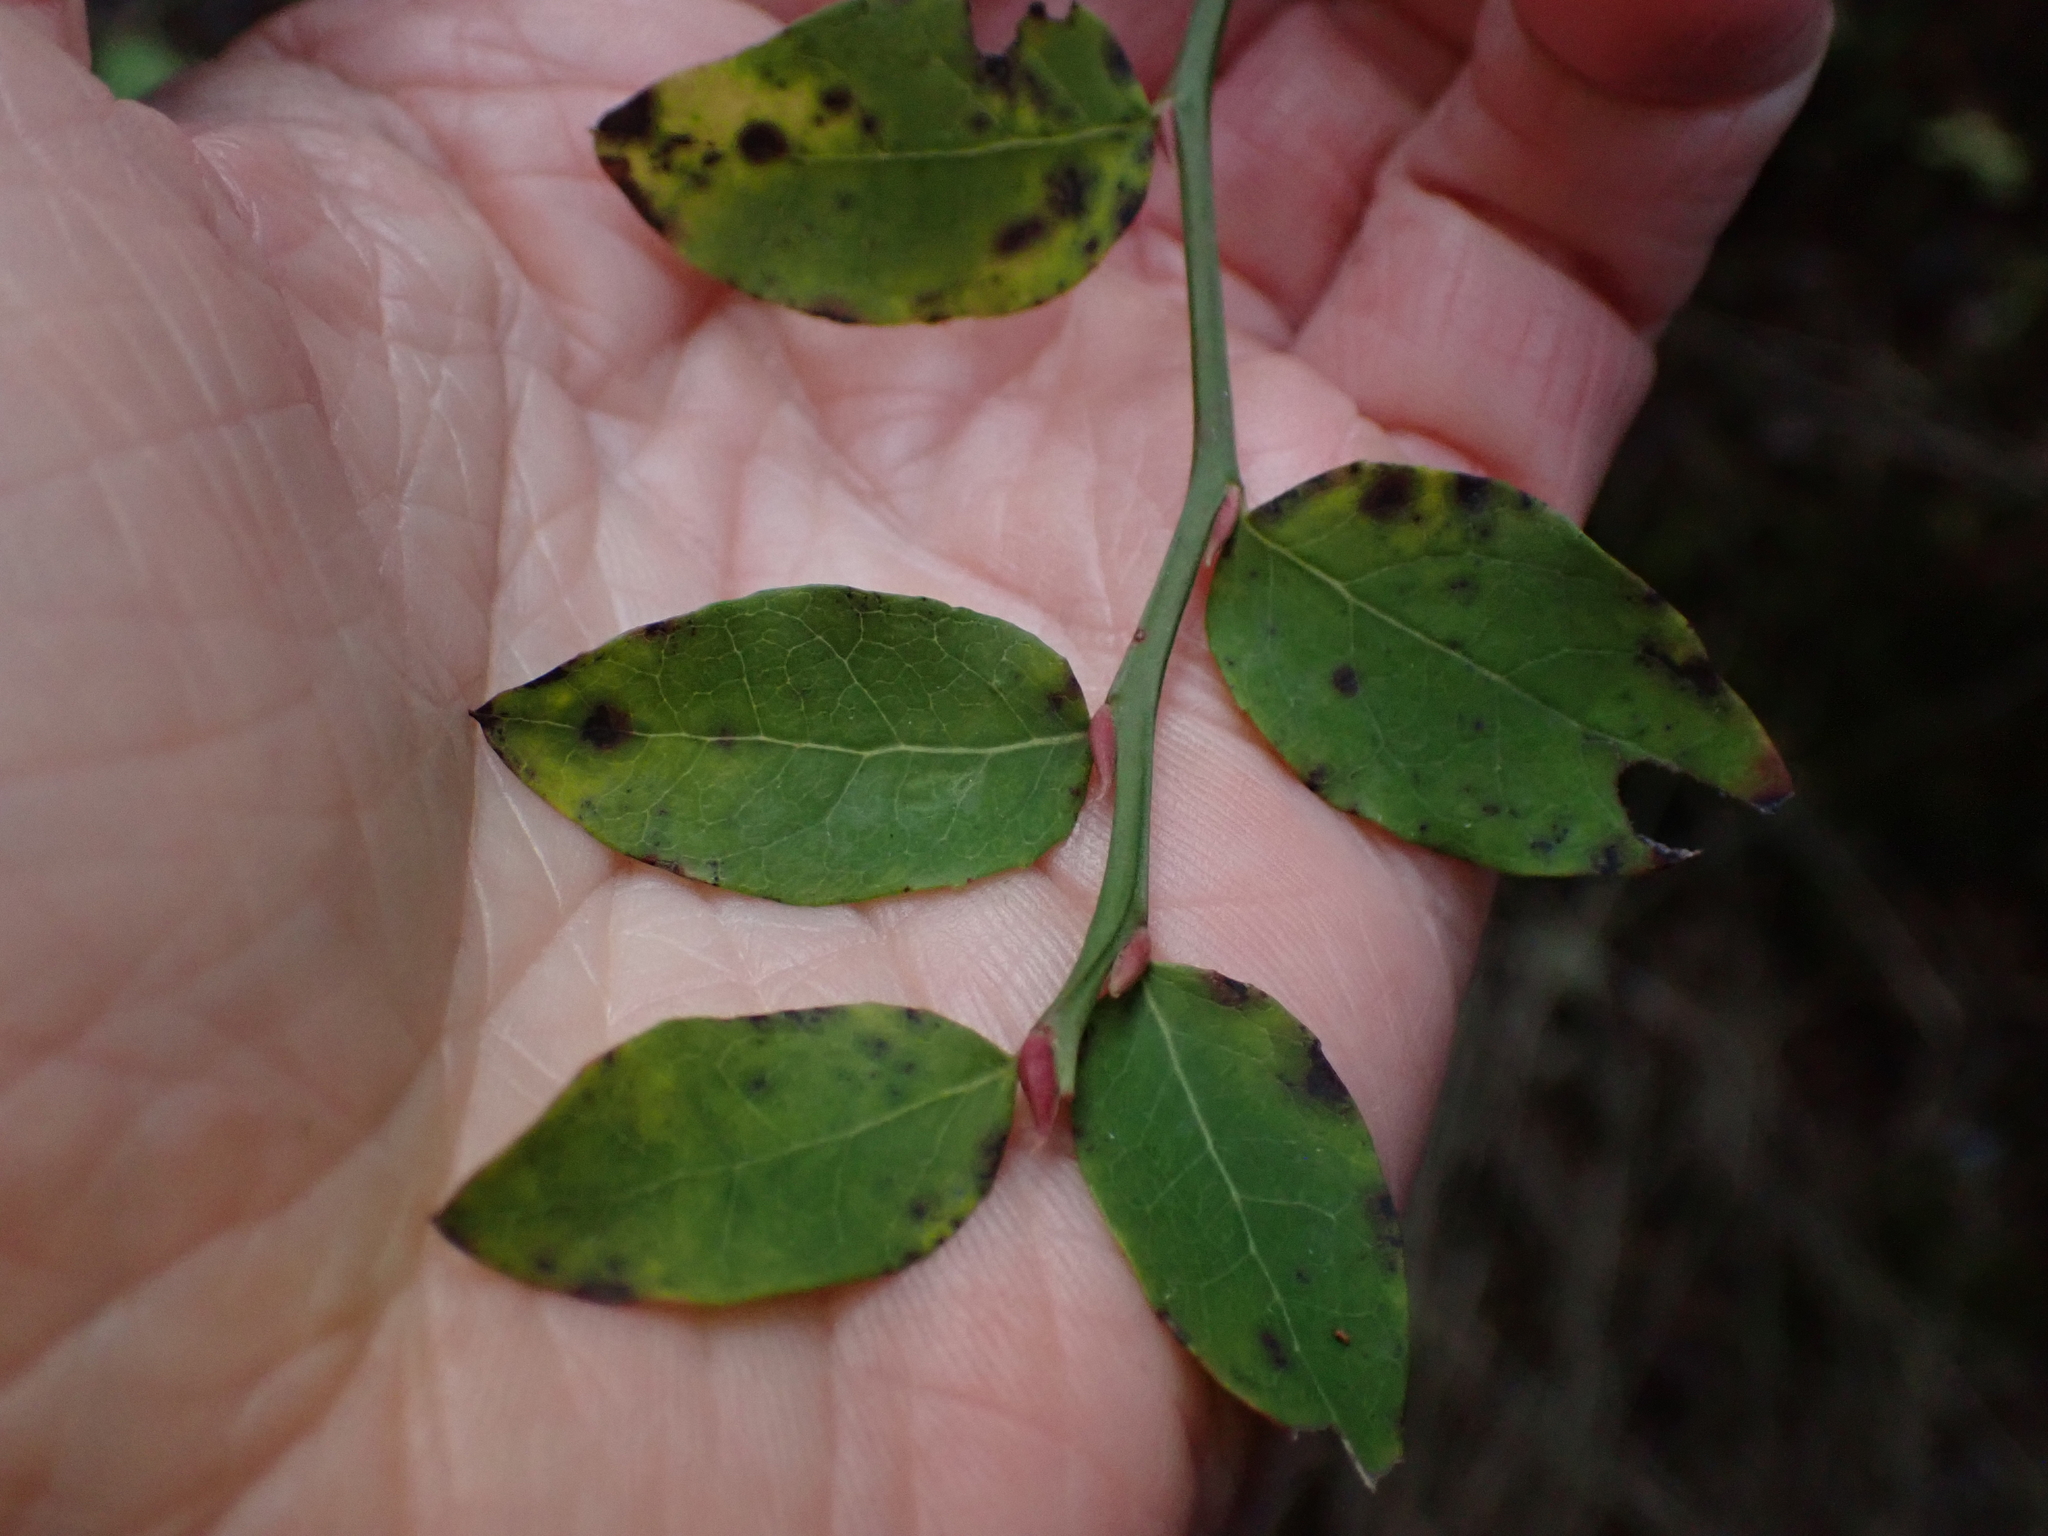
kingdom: Plantae
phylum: Tracheophyta
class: Magnoliopsida
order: Ericales
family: Ericaceae
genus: Vaccinium
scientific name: Vaccinium parvifolium
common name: Red-huckleberry
